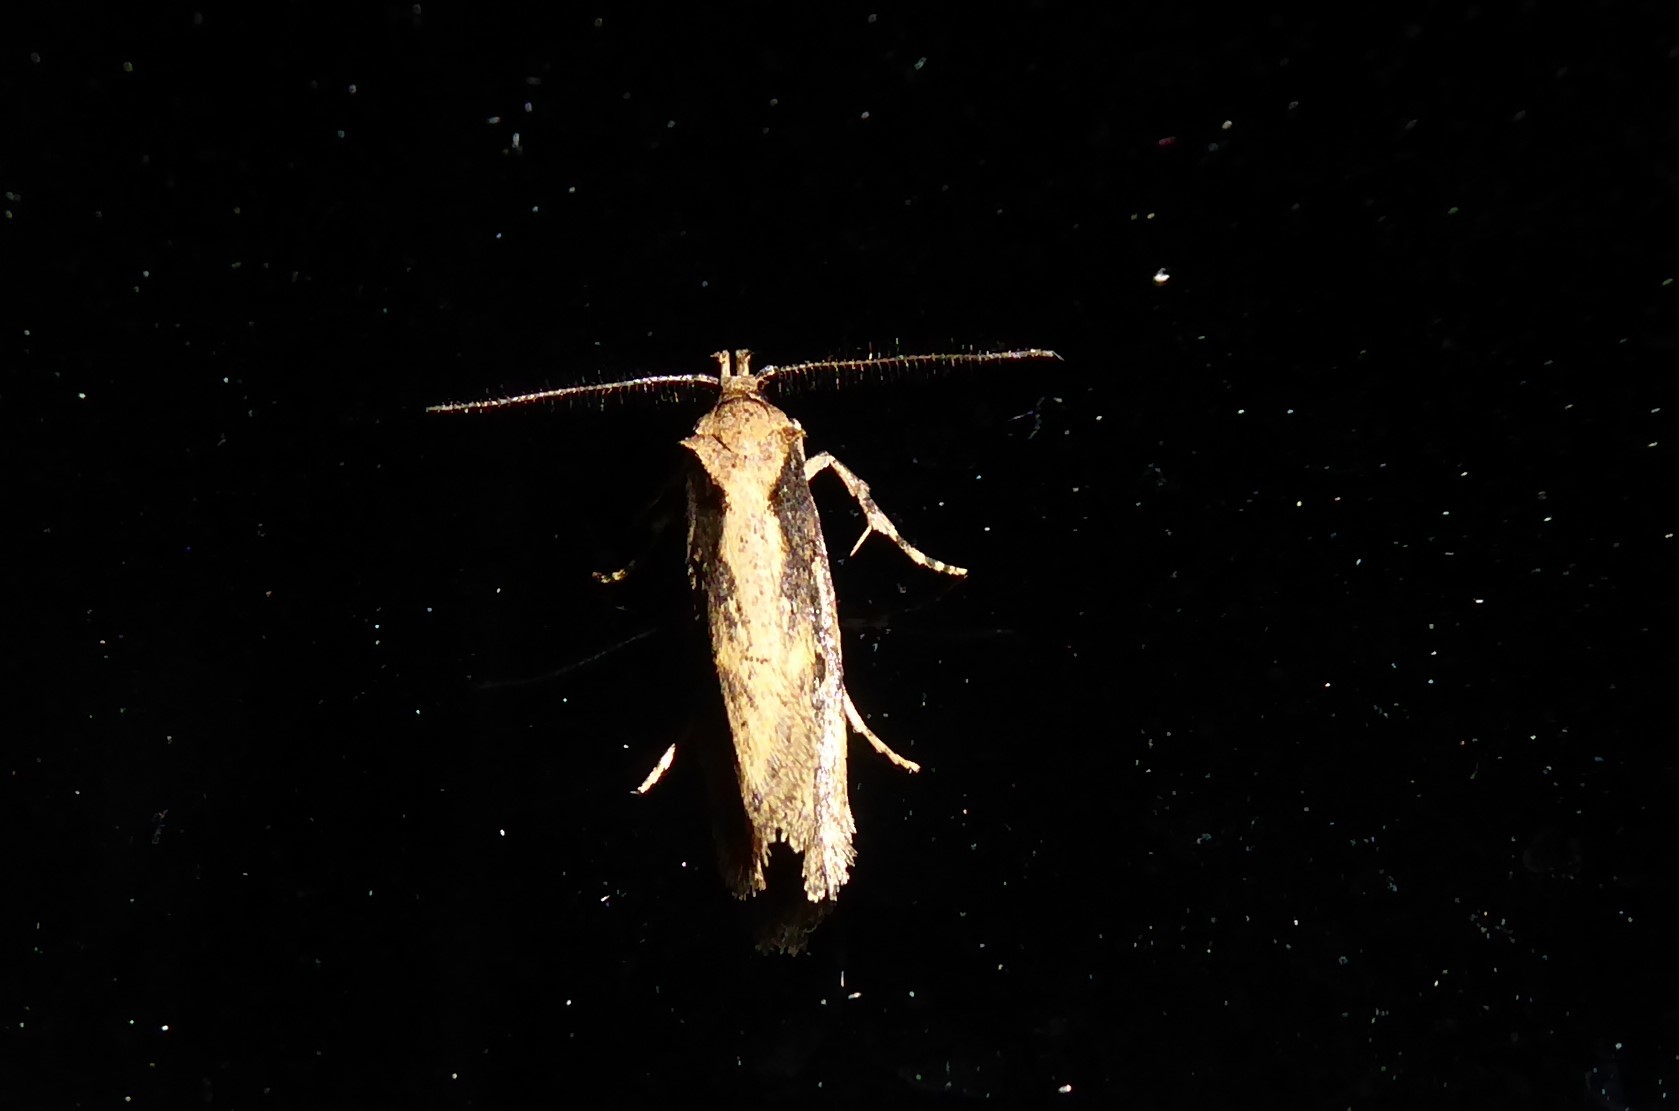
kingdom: Animalia
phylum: Arthropoda
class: Insecta
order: Lepidoptera
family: Oecophoridae
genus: Atomotricha
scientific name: Atomotricha chloronota
